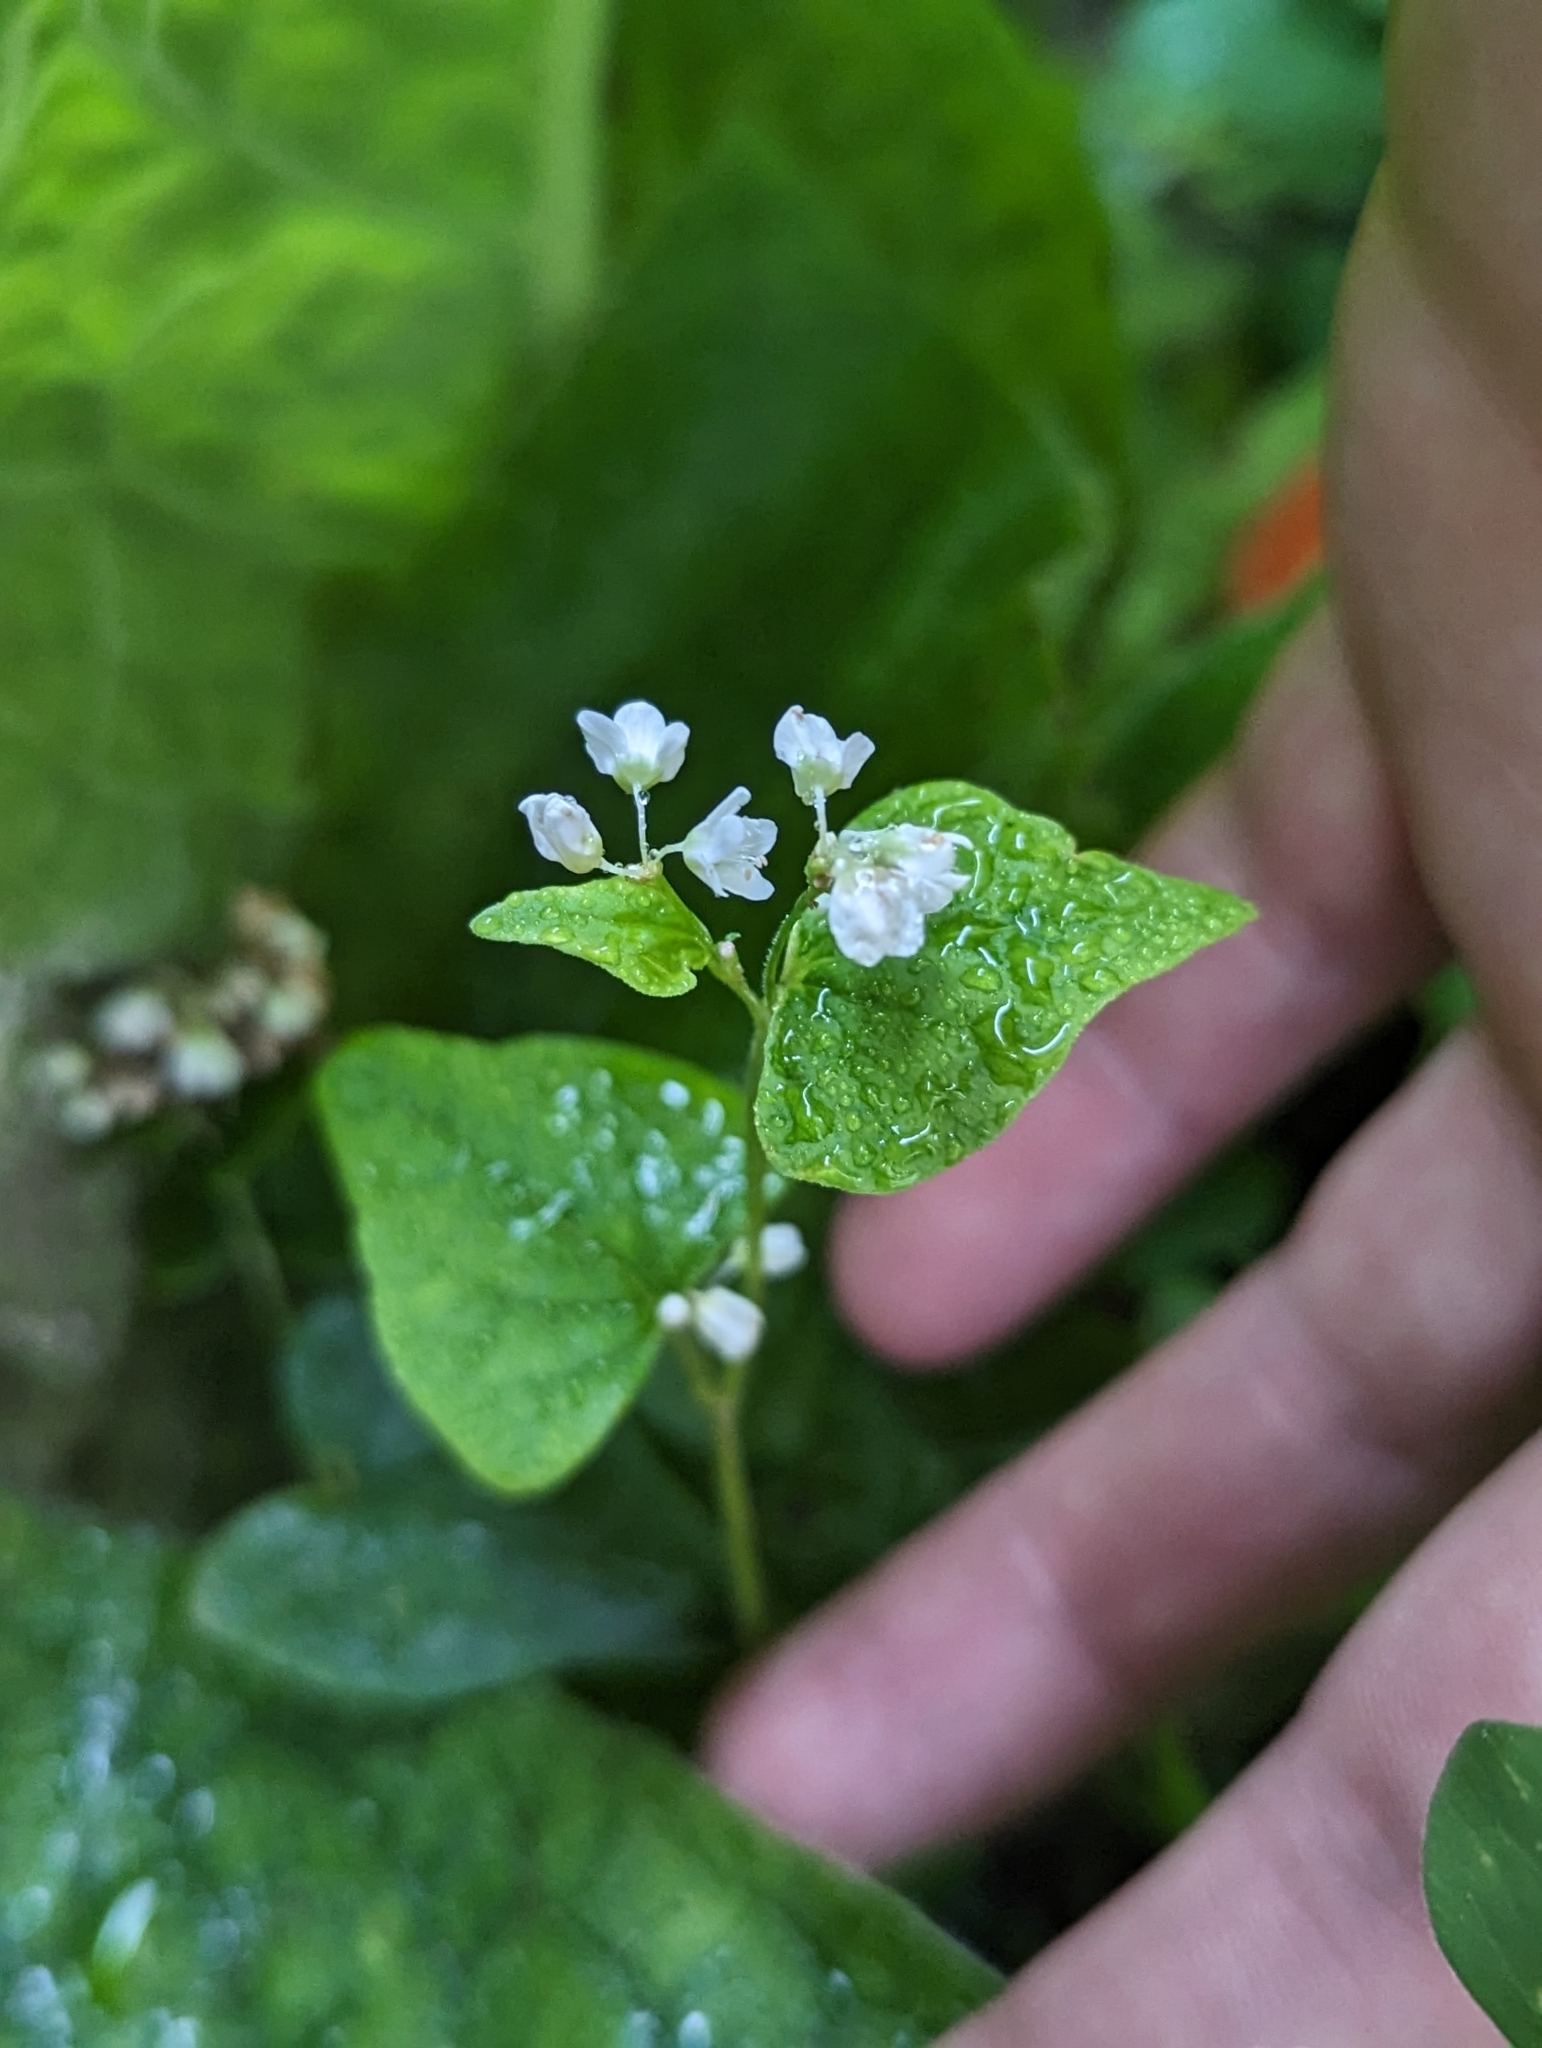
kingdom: Plantae
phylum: Tracheophyta
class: Magnoliopsida
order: Caryophyllales
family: Polygonaceae
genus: Fagopyrum
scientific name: Fagopyrum esculentum
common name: Buckwheat
